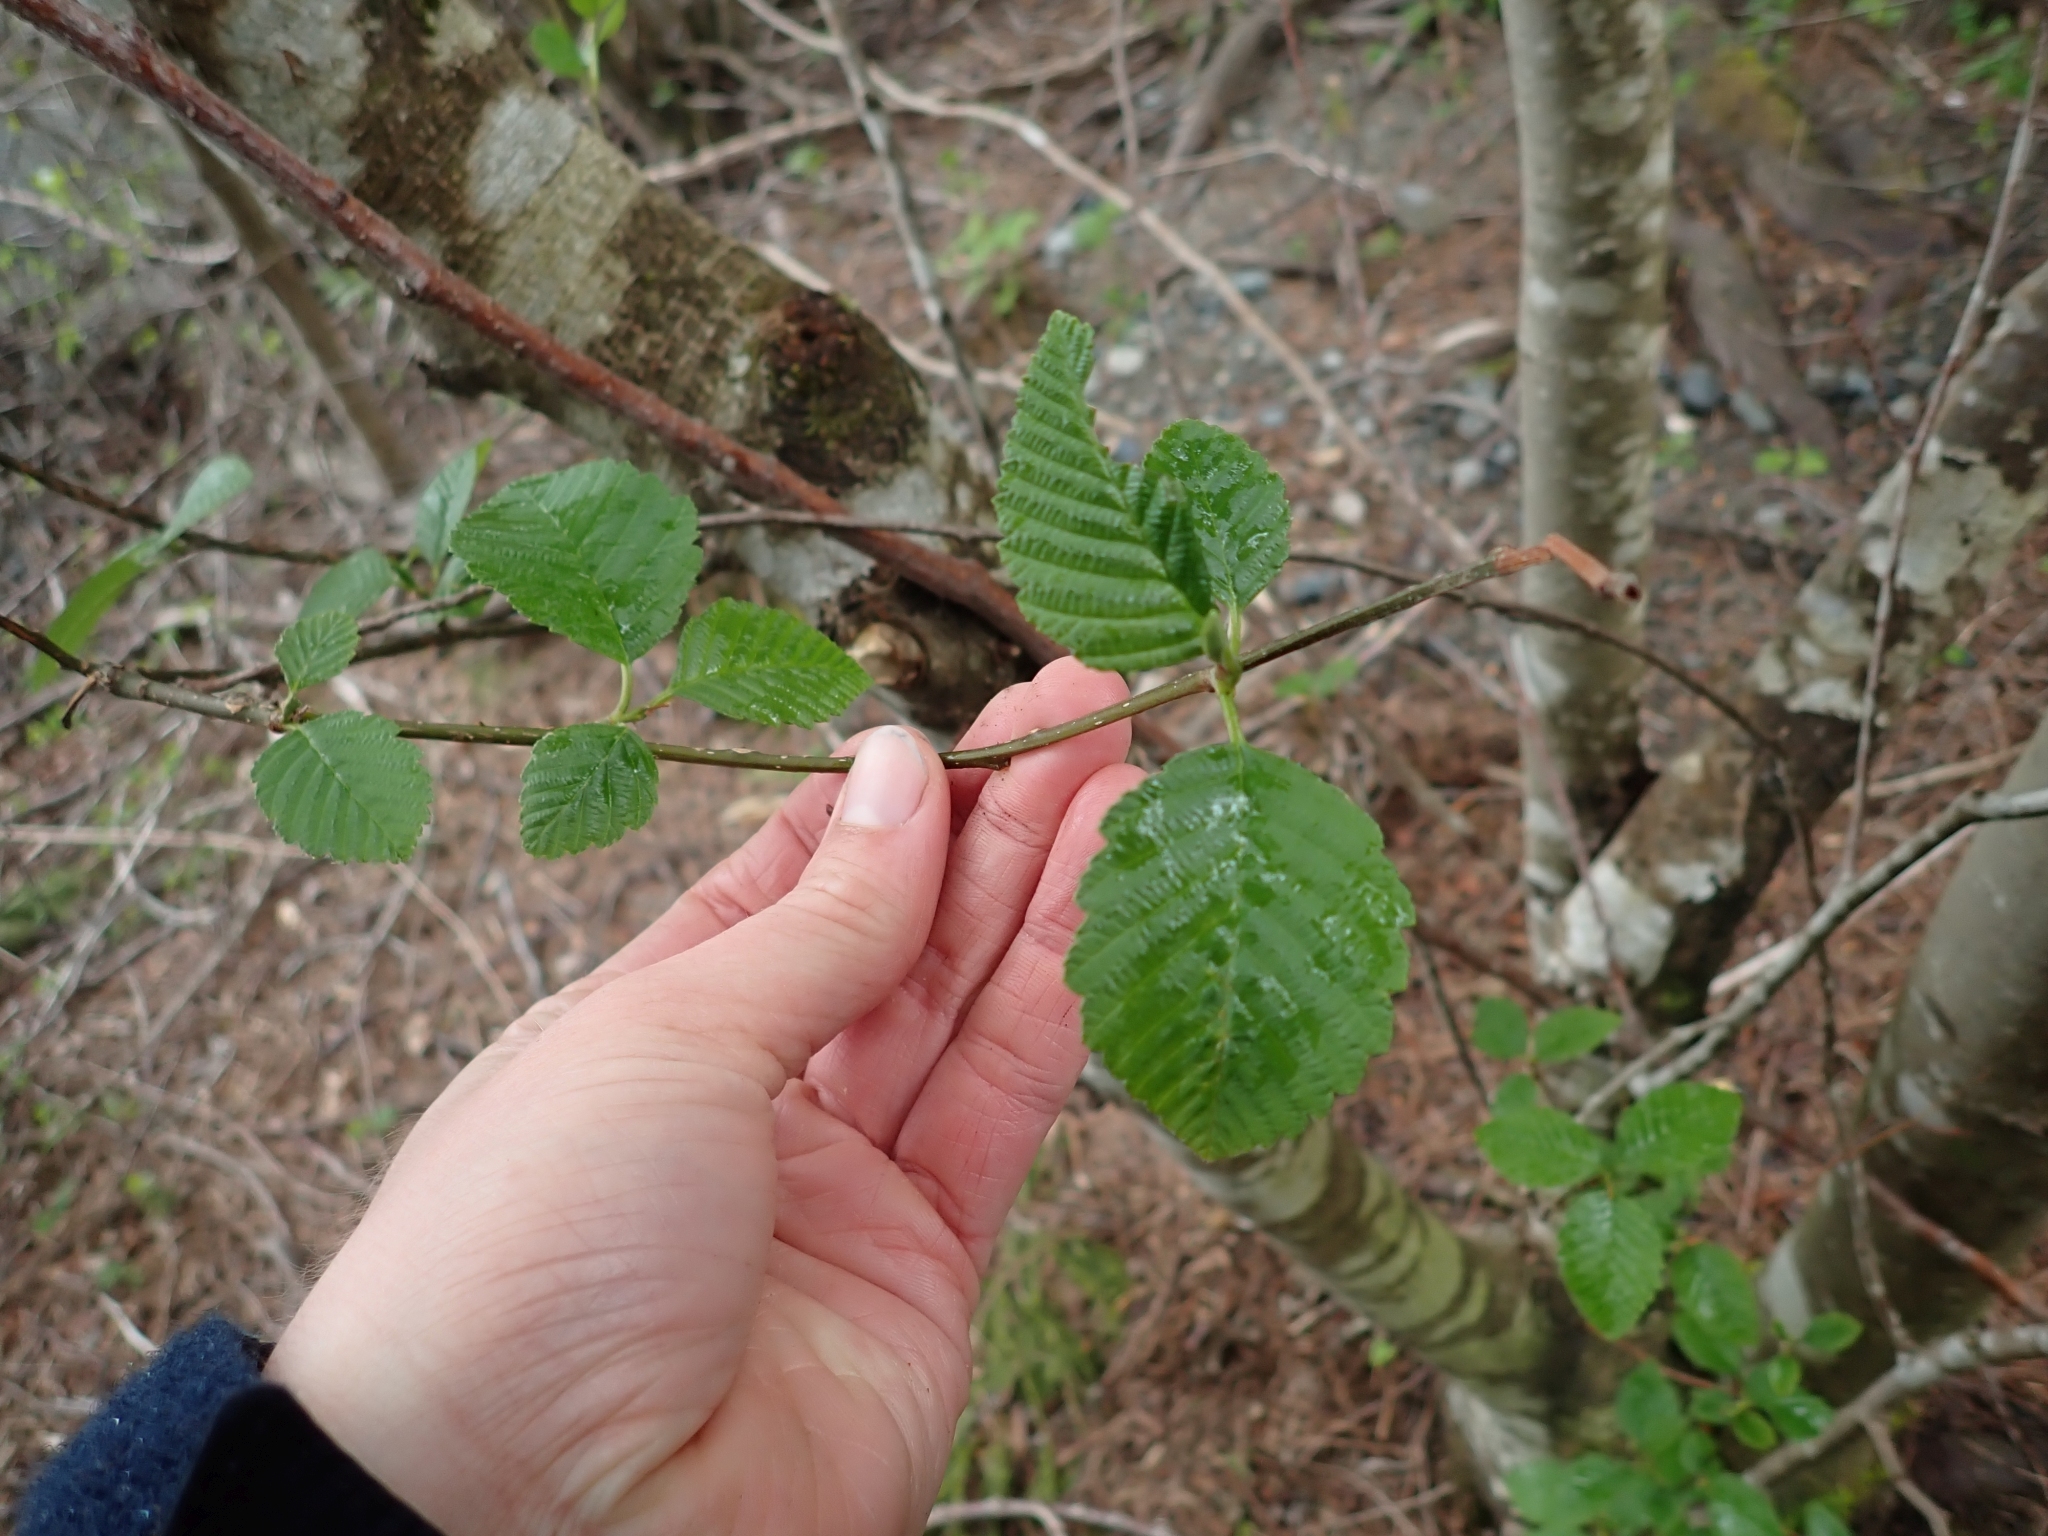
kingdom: Plantae
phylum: Tracheophyta
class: Magnoliopsida
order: Fagales
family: Betulaceae
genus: Alnus
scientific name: Alnus rubra
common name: Red alder
